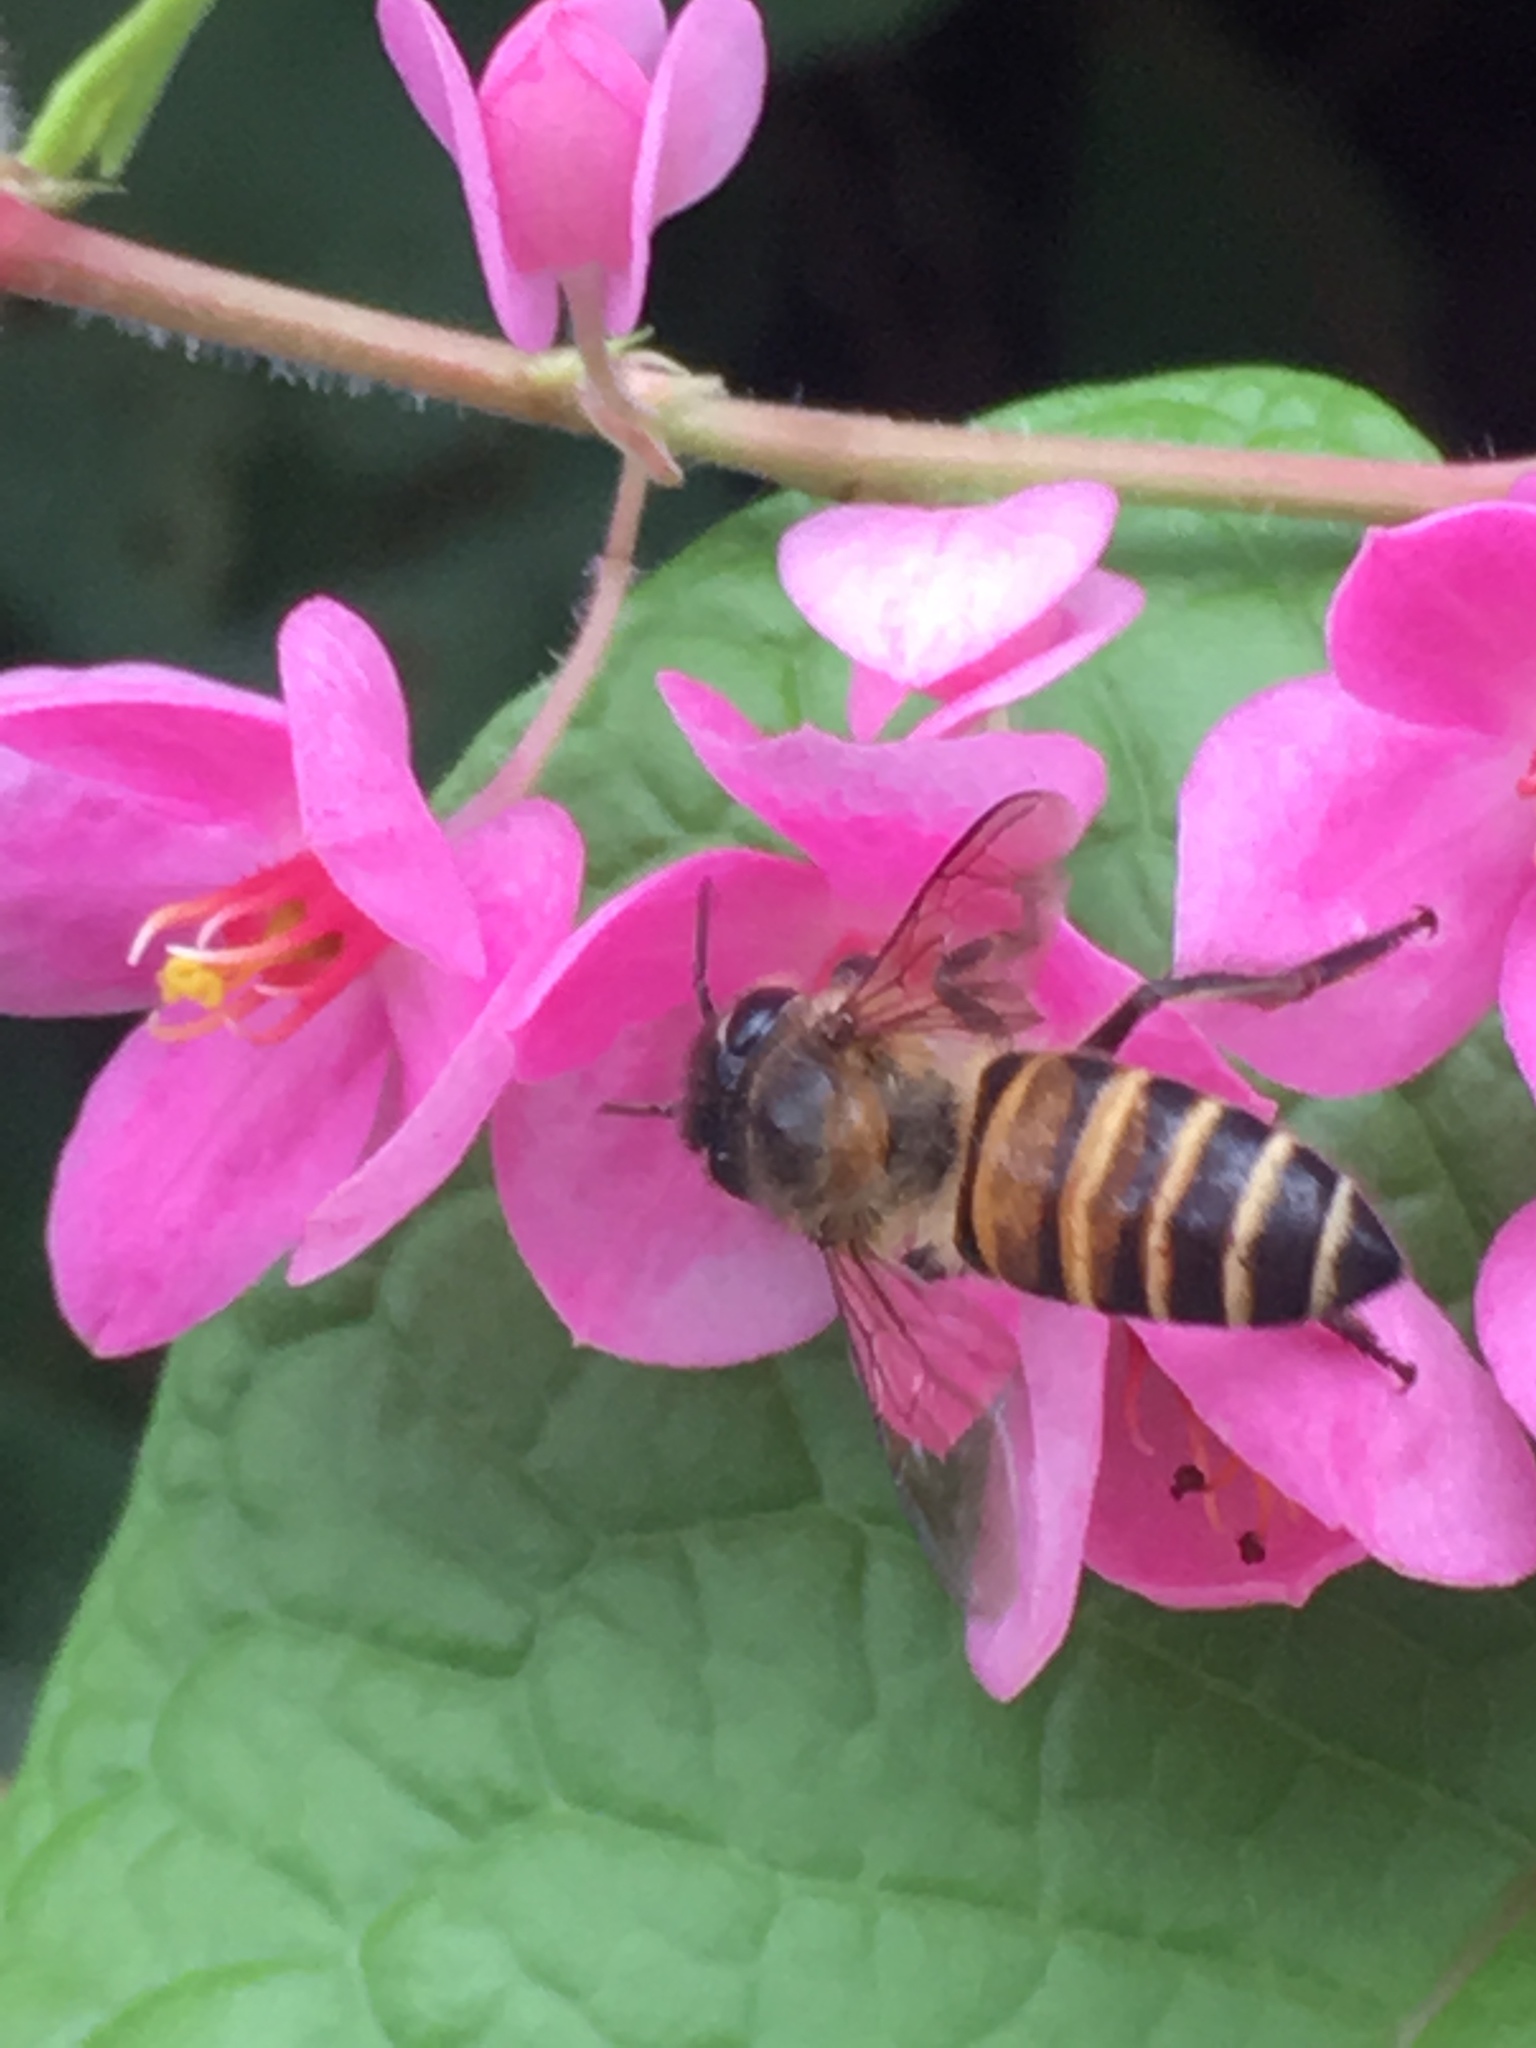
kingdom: Animalia
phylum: Arthropoda
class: Insecta
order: Hymenoptera
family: Apidae
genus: Apis
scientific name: Apis cerana
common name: Honey bee
